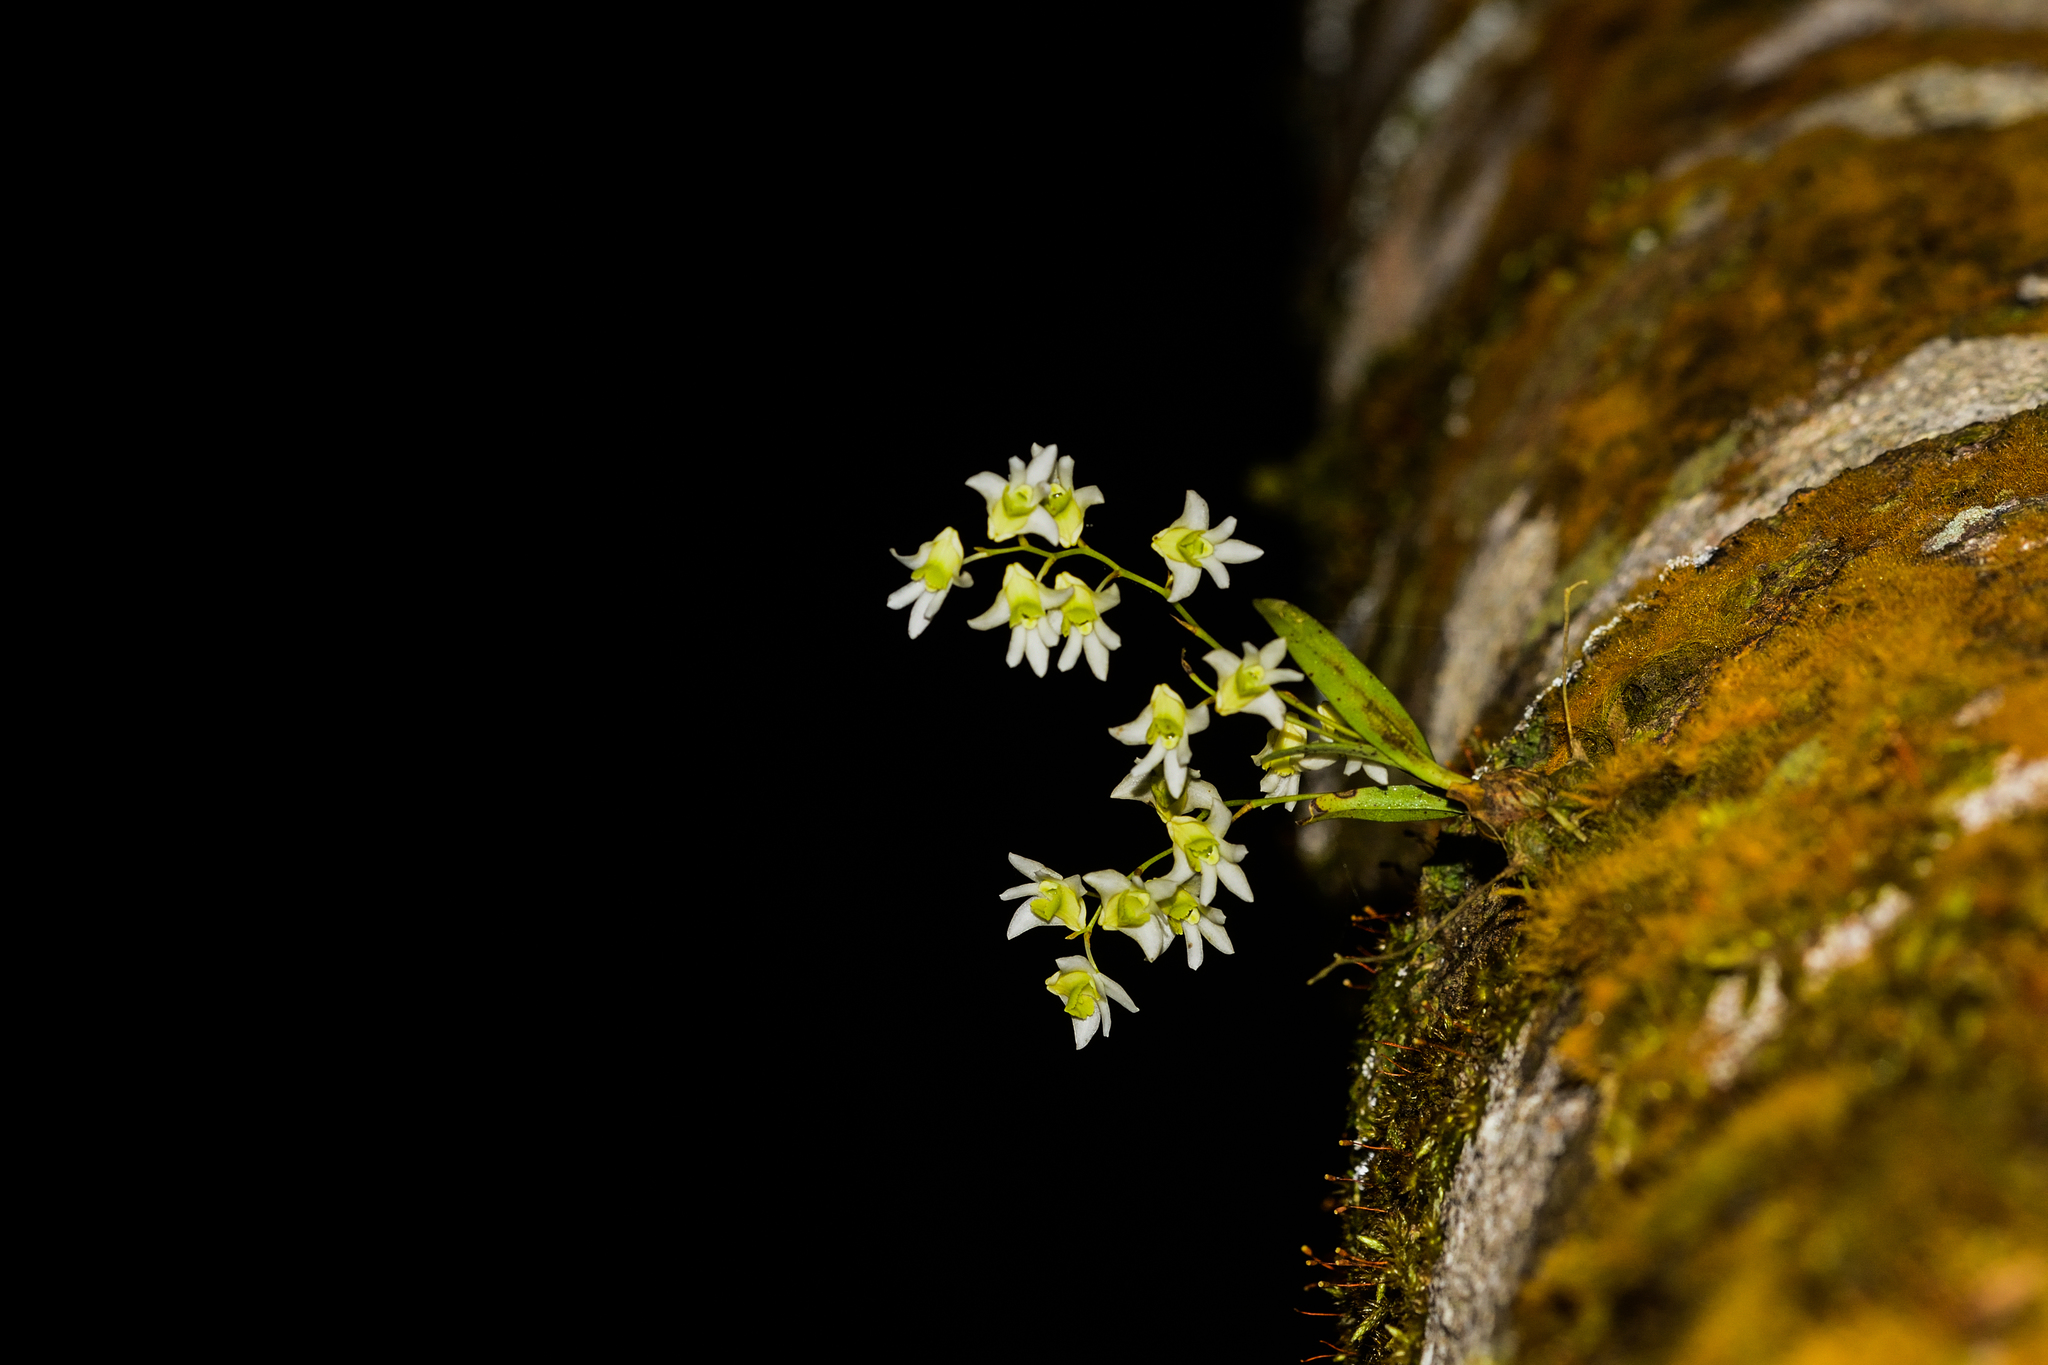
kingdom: Plantae
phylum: Tracheophyta
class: Liliopsida
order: Asparagales
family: Orchidaceae
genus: Dendrobium
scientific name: Dendrobium nanum
